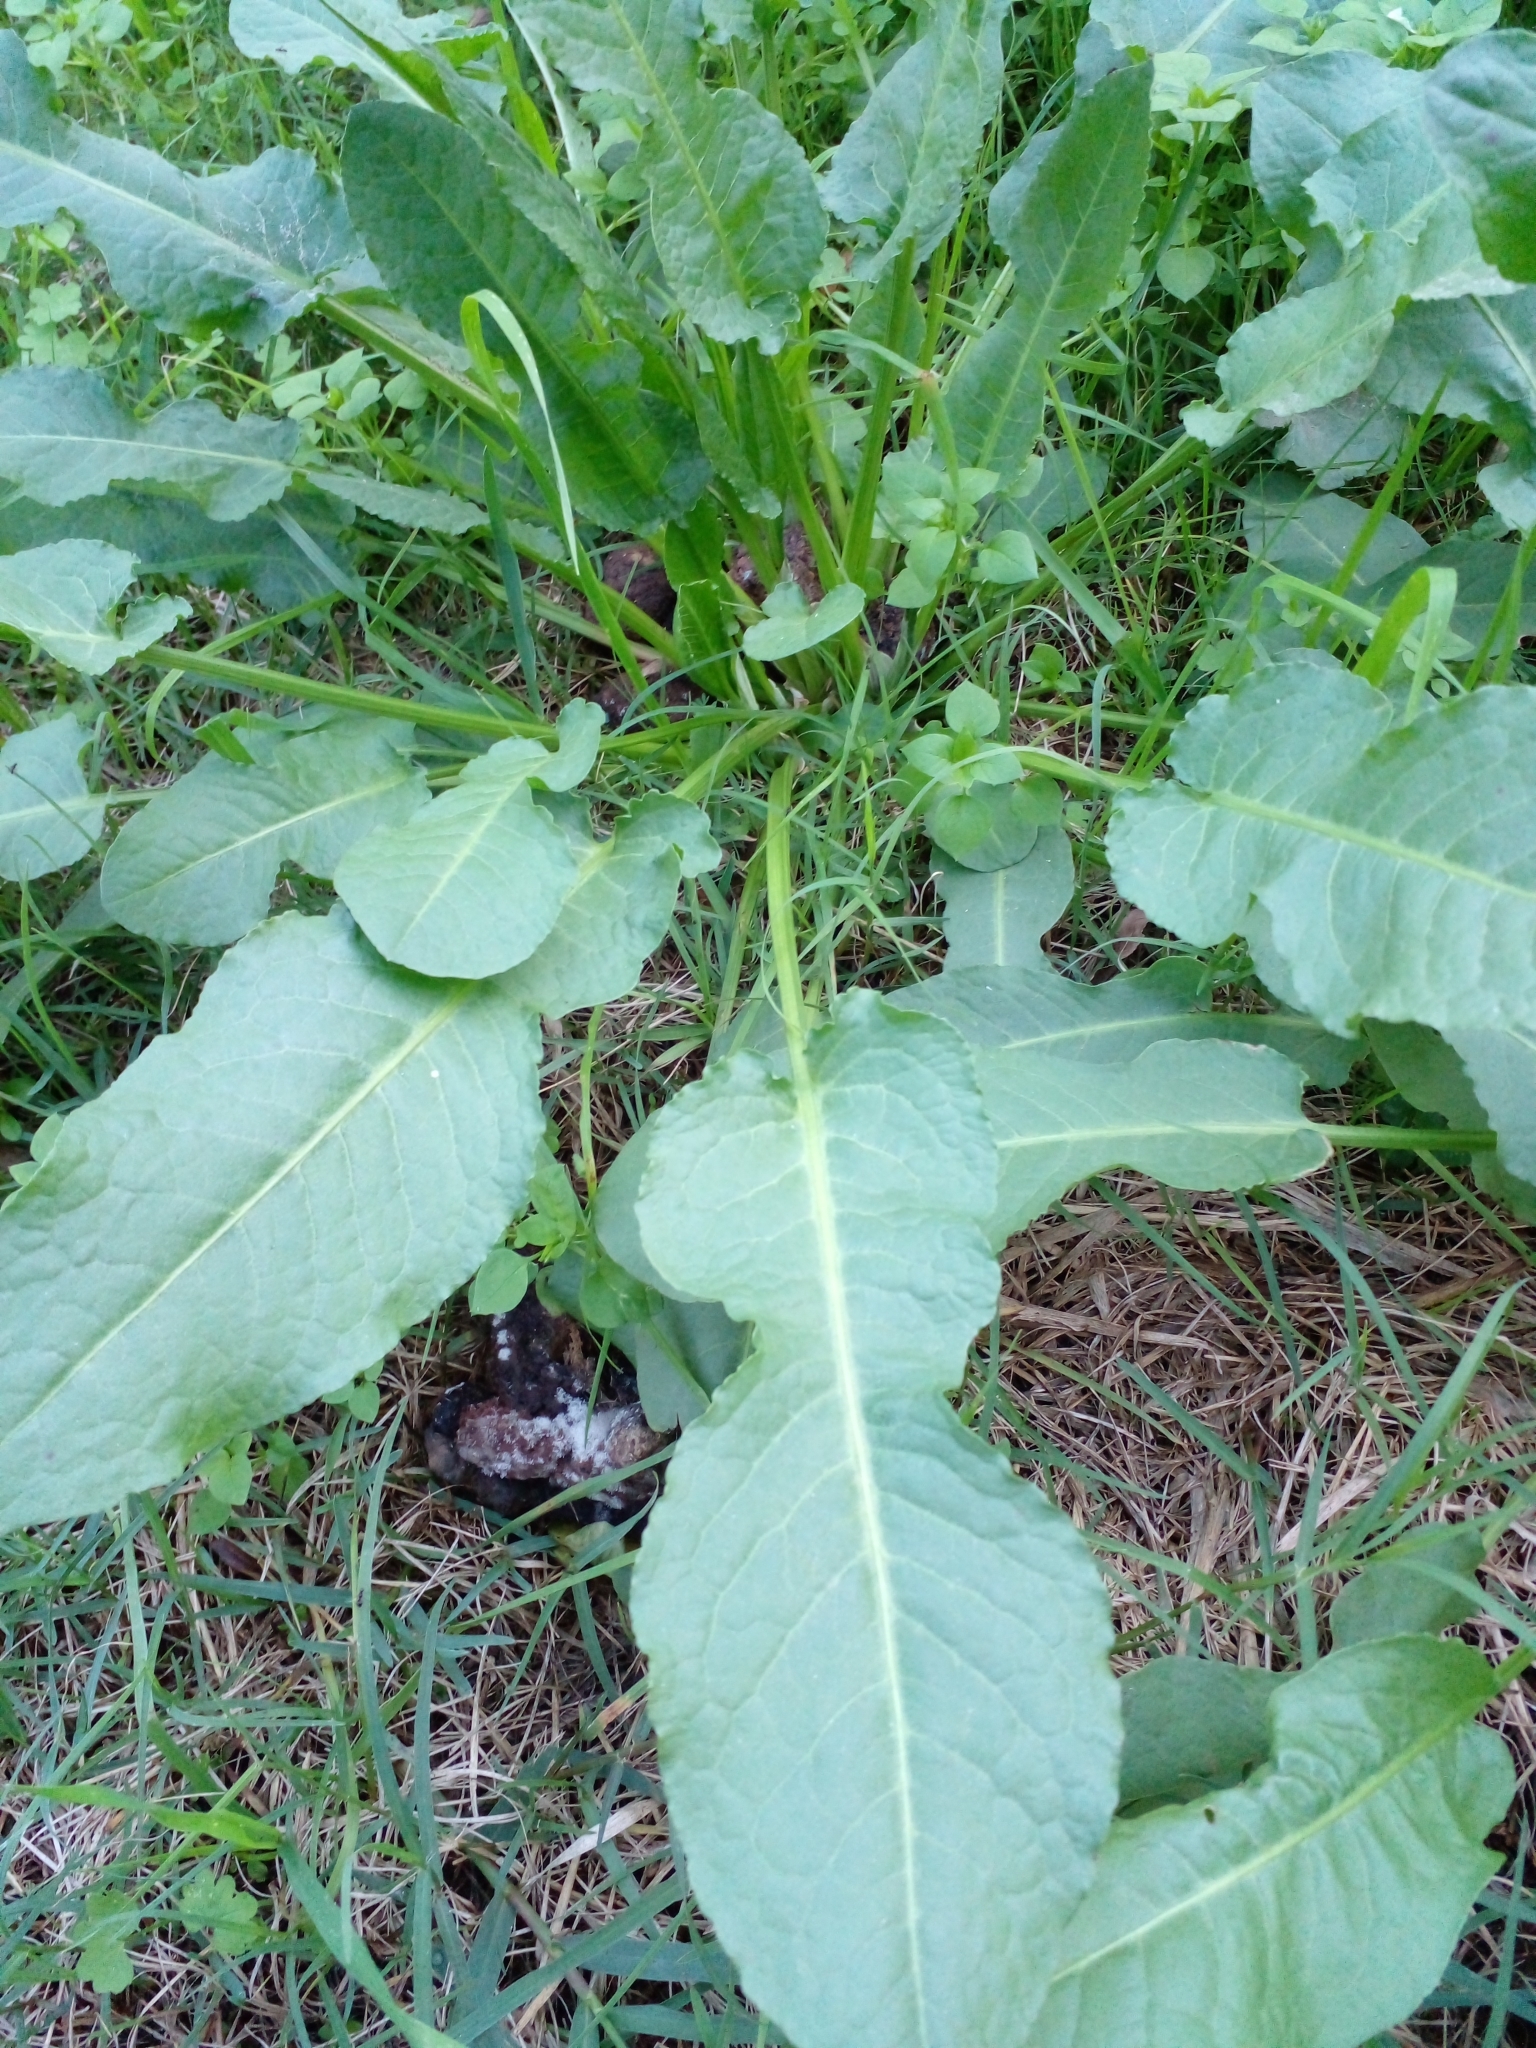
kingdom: Plantae
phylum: Tracheophyta
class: Magnoliopsida
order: Caryophyllales
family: Polygonaceae
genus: Rumex
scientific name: Rumex crispus
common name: Curled dock
